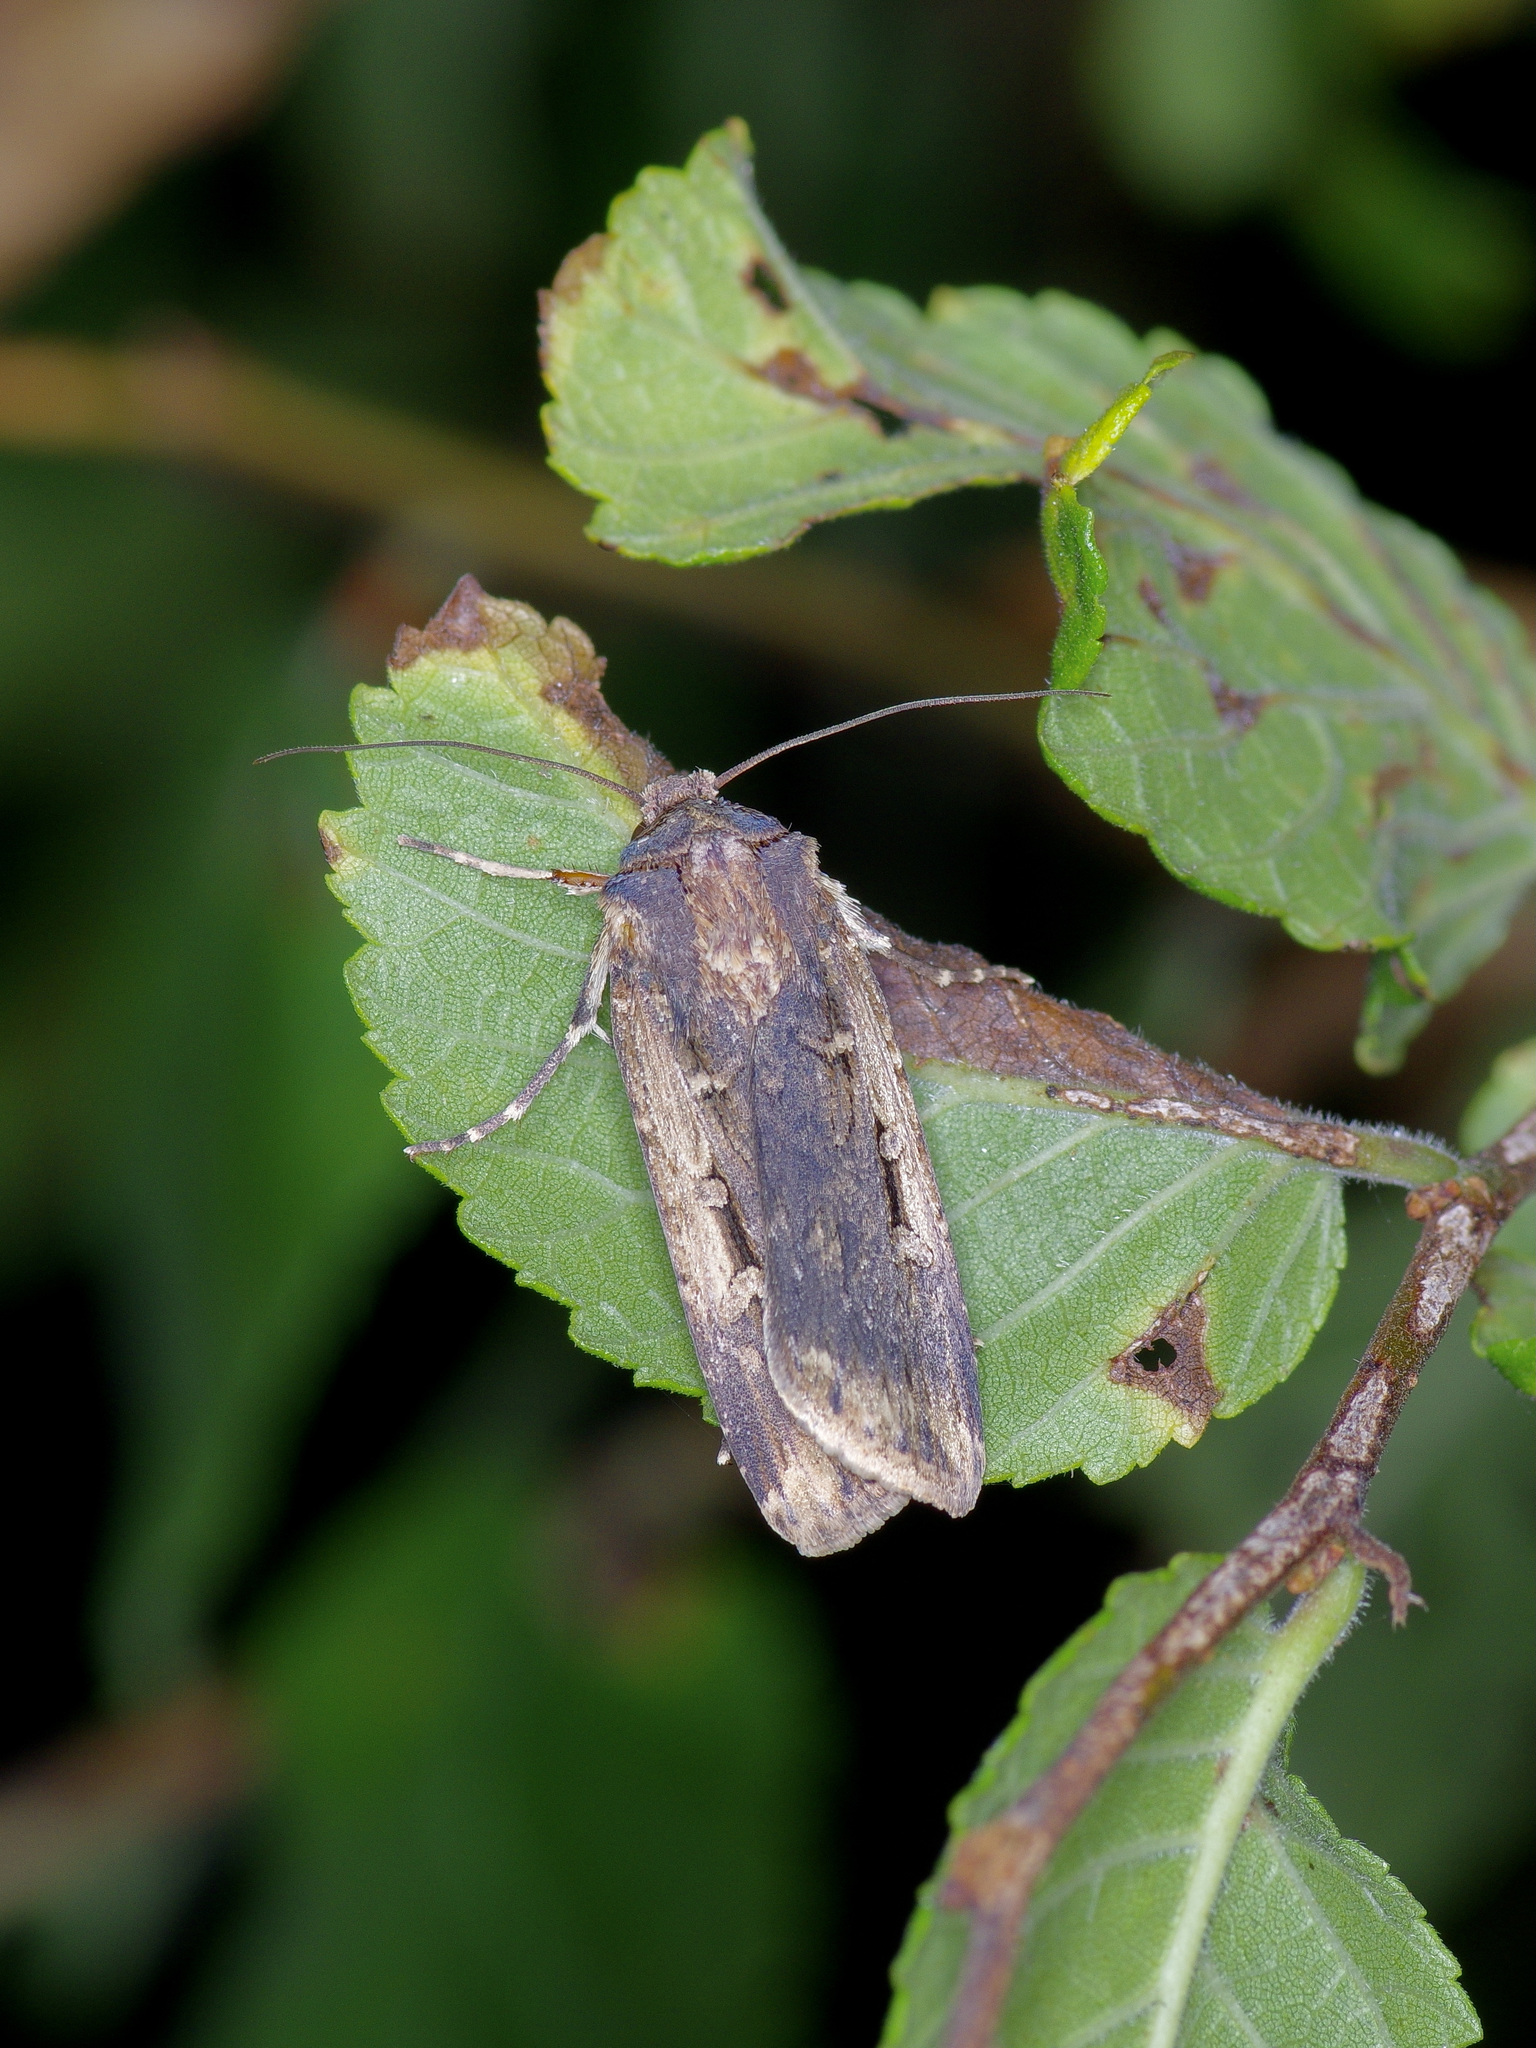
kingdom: Animalia
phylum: Arthropoda
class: Insecta
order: Lepidoptera
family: Noctuidae
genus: Feltia
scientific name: Feltia subterranea
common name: Granulate cutworm
